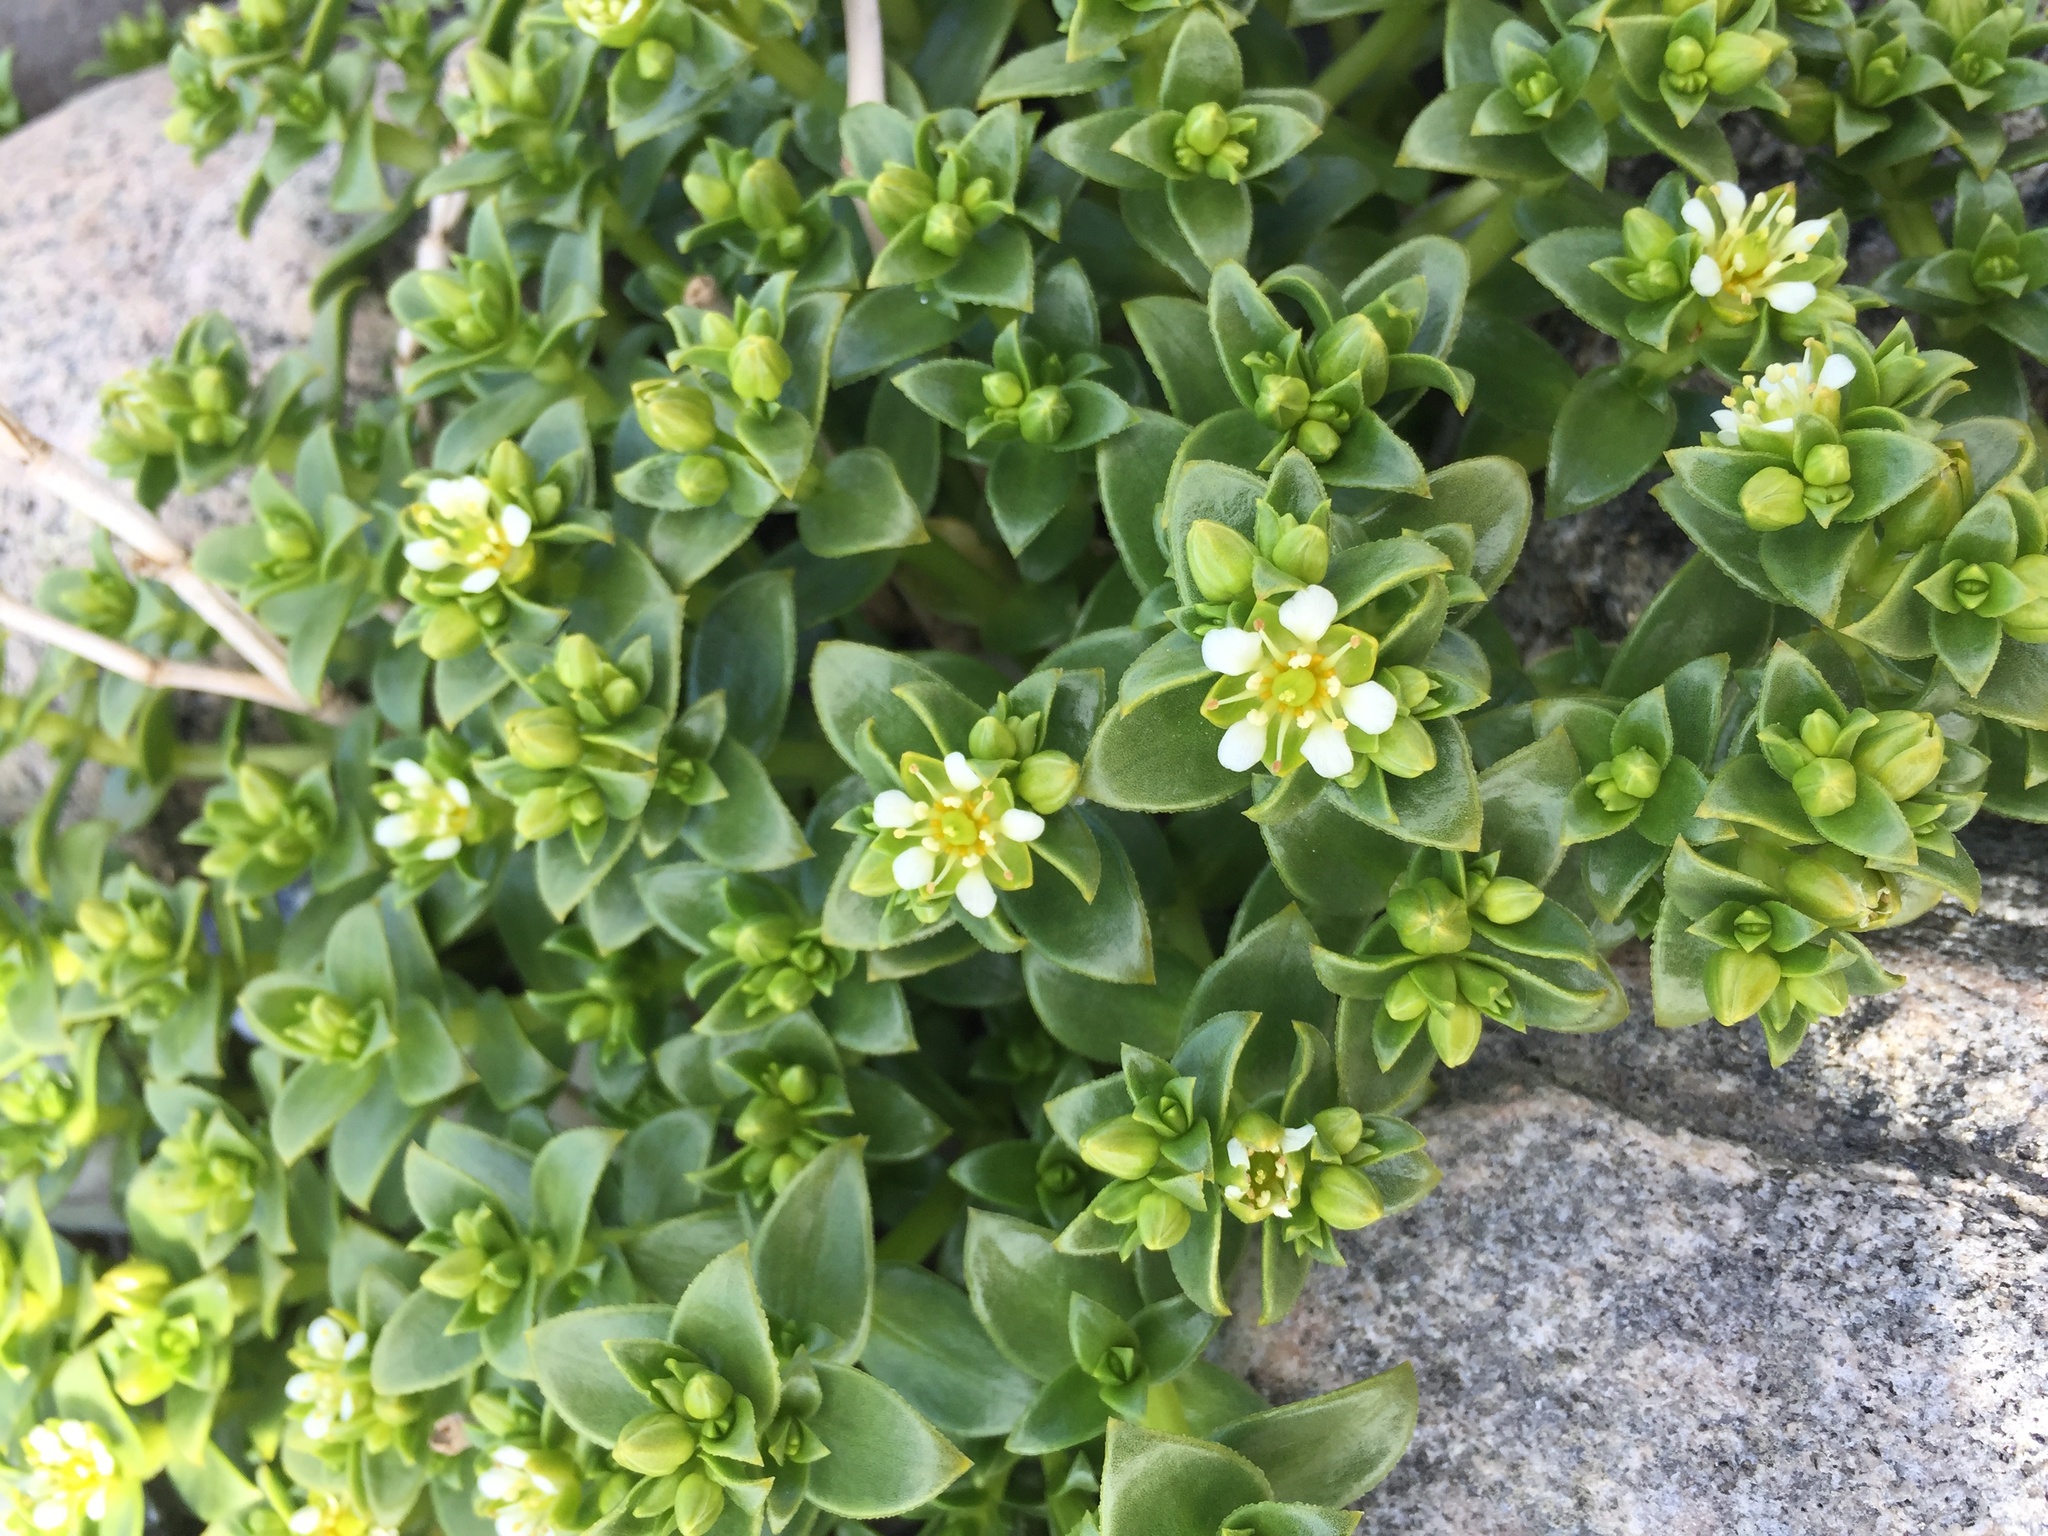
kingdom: Plantae
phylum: Tracheophyta
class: Magnoliopsida
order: Caryophyllales
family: Caryophyllaceae
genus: Honckenya
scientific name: Honckenya peploides
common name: Sea sandwort
